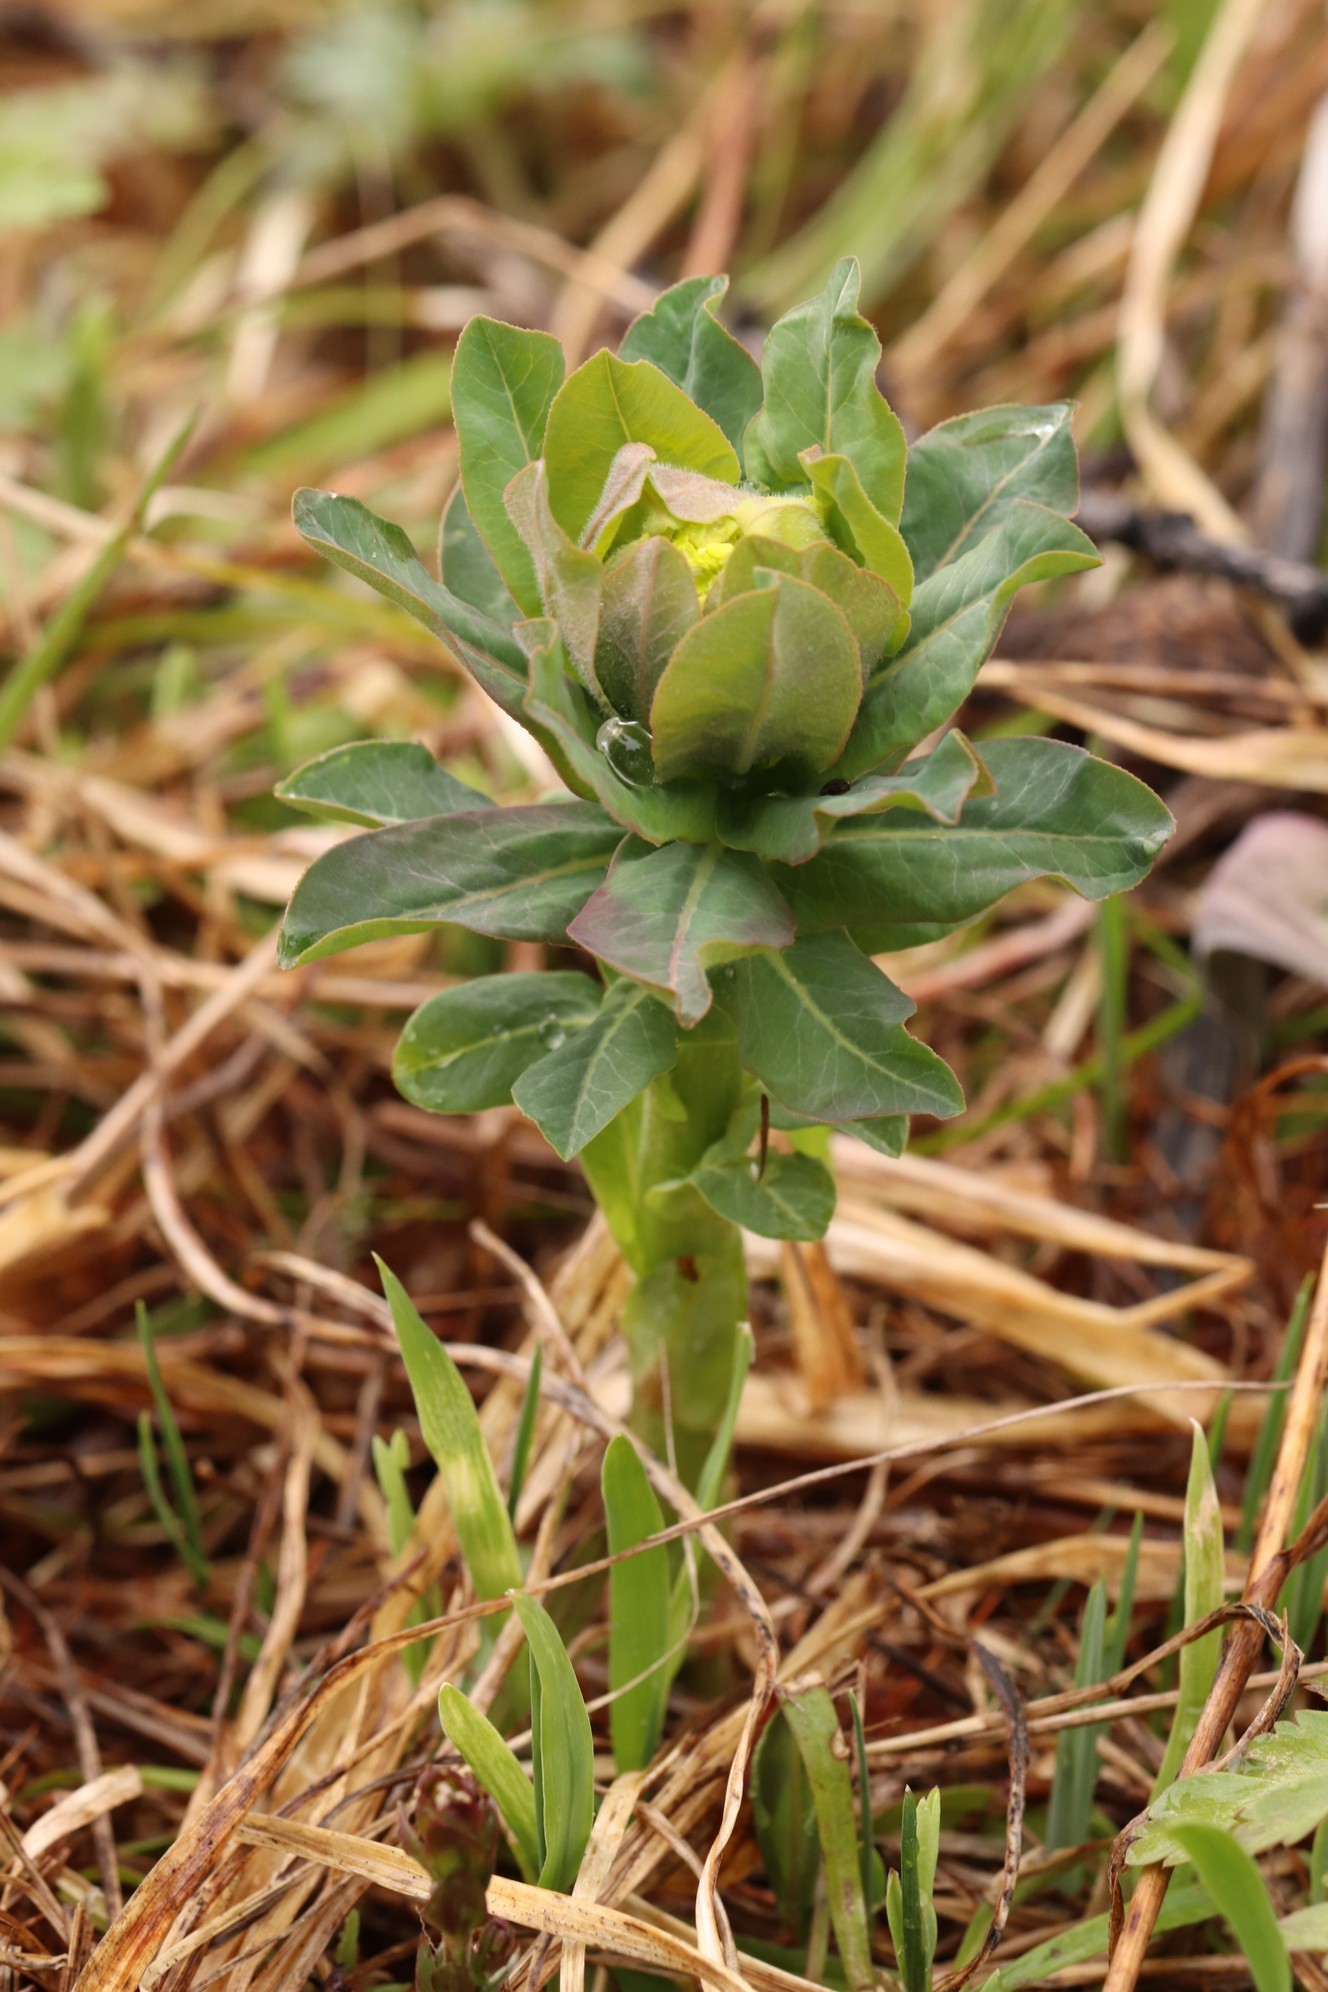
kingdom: Plantae
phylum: Tracheophyta
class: Magnoliopsida
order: Malpighiales
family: Euphorbiaceae
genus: Euphorbia
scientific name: Euphorbia pilosa
